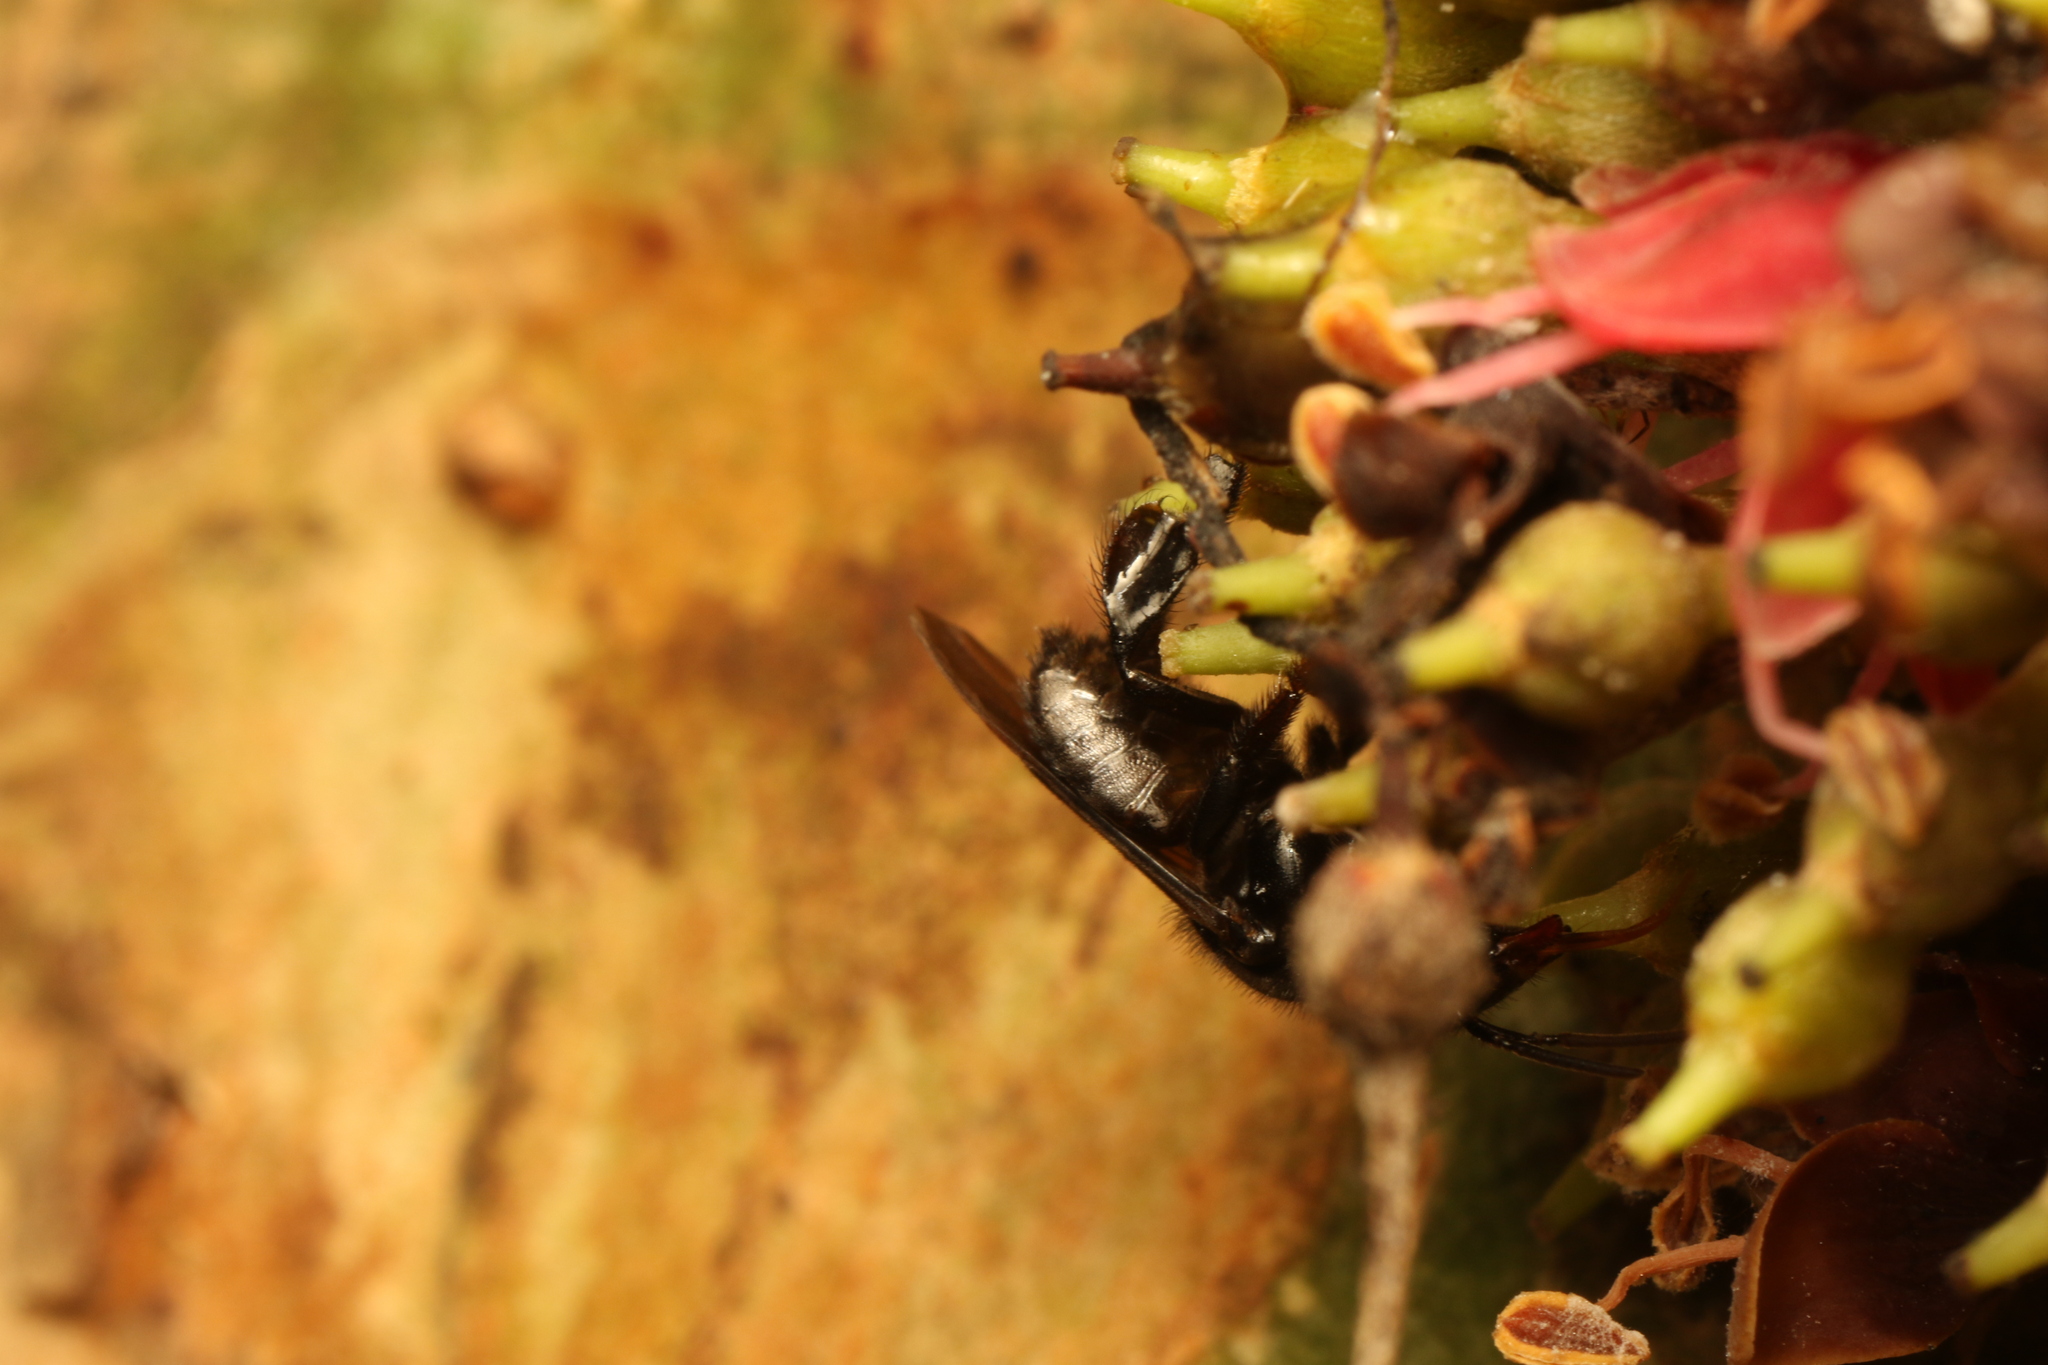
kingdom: Animalia
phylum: Arthropoda
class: Insecta
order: Hymenoptera
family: Apidae
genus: Partamona
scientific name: Partamona helleri
